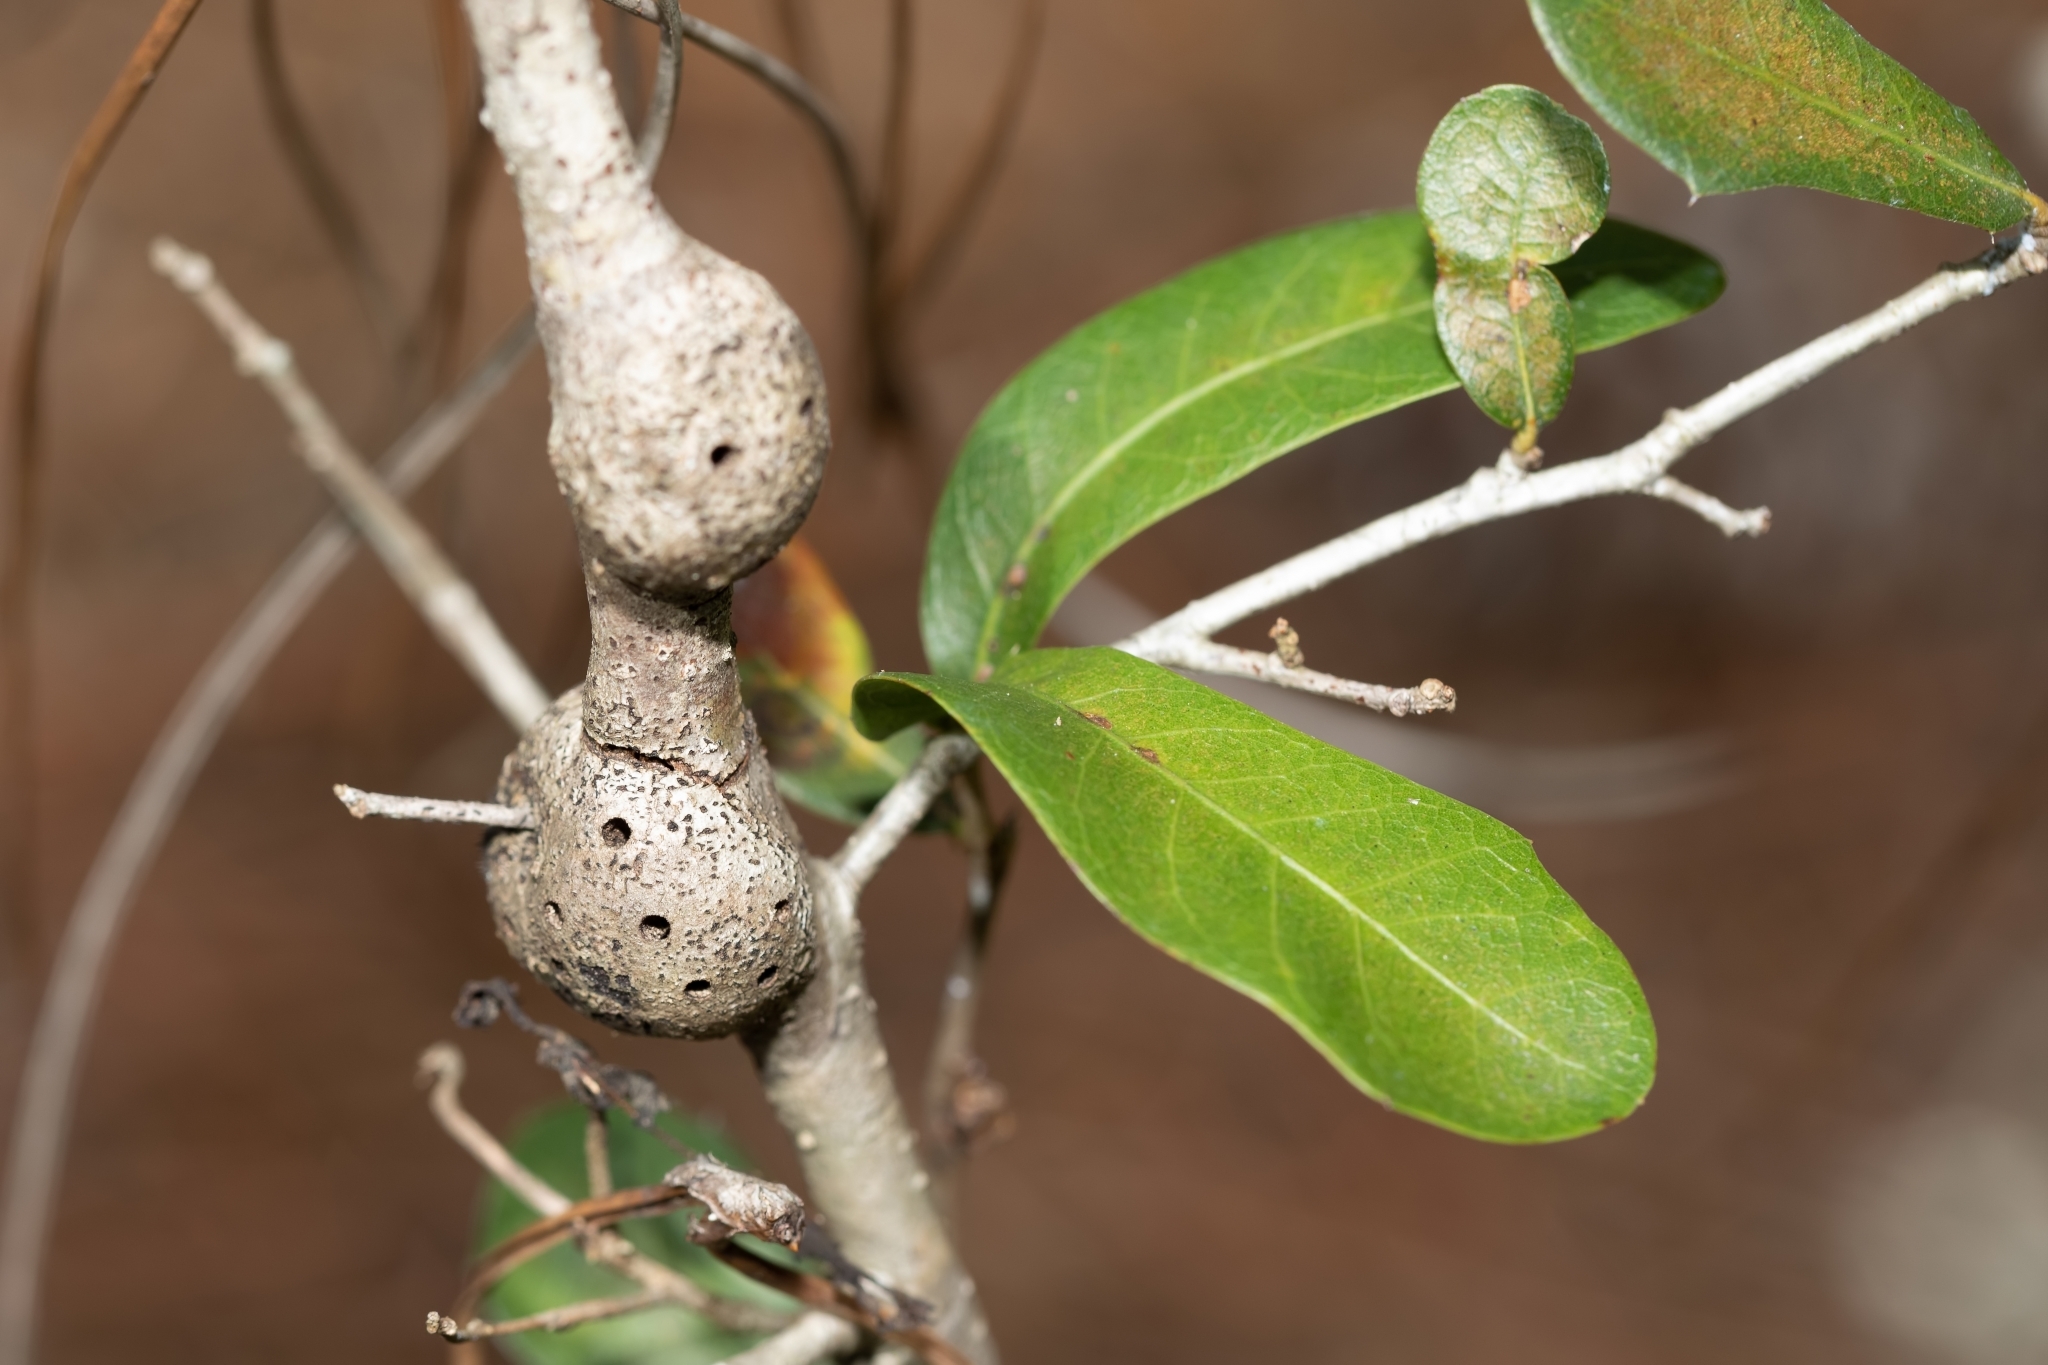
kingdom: Animalia
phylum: Arthropoda
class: Insecta
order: Hymenoptera
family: Cynipidae
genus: Callirhytis
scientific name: Callirhytis
